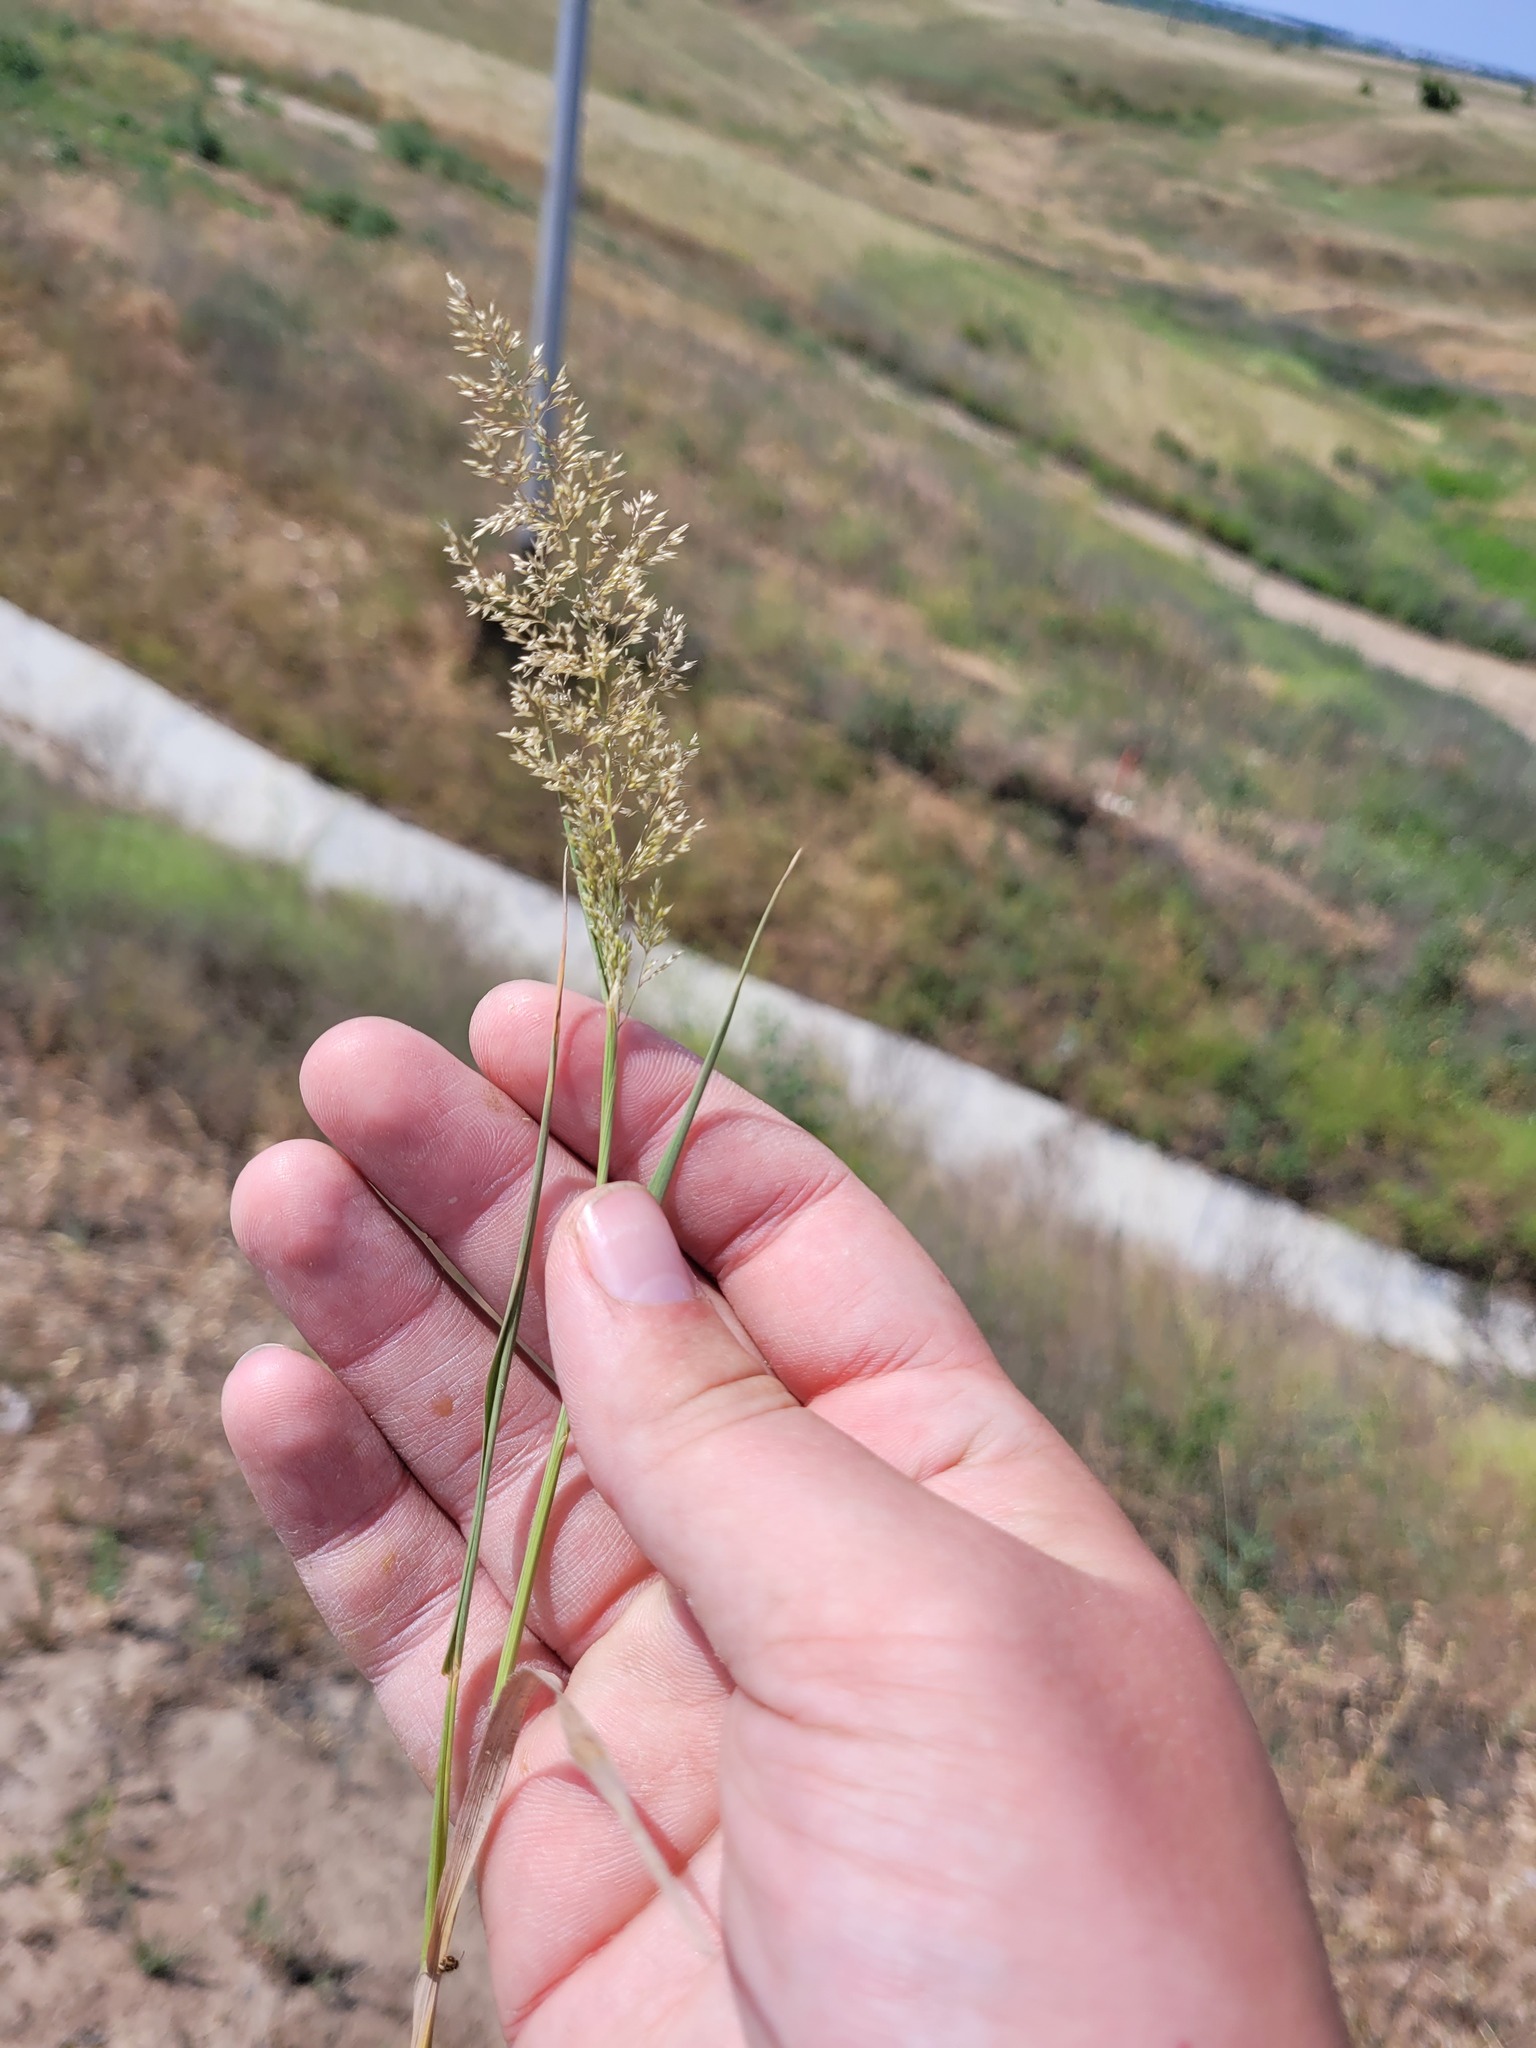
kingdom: Plantae
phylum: Tracheophyta
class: Liliopsida
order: Poales
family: Poaceae
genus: Agrostis
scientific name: Agrostis gigantea
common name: Black bent
